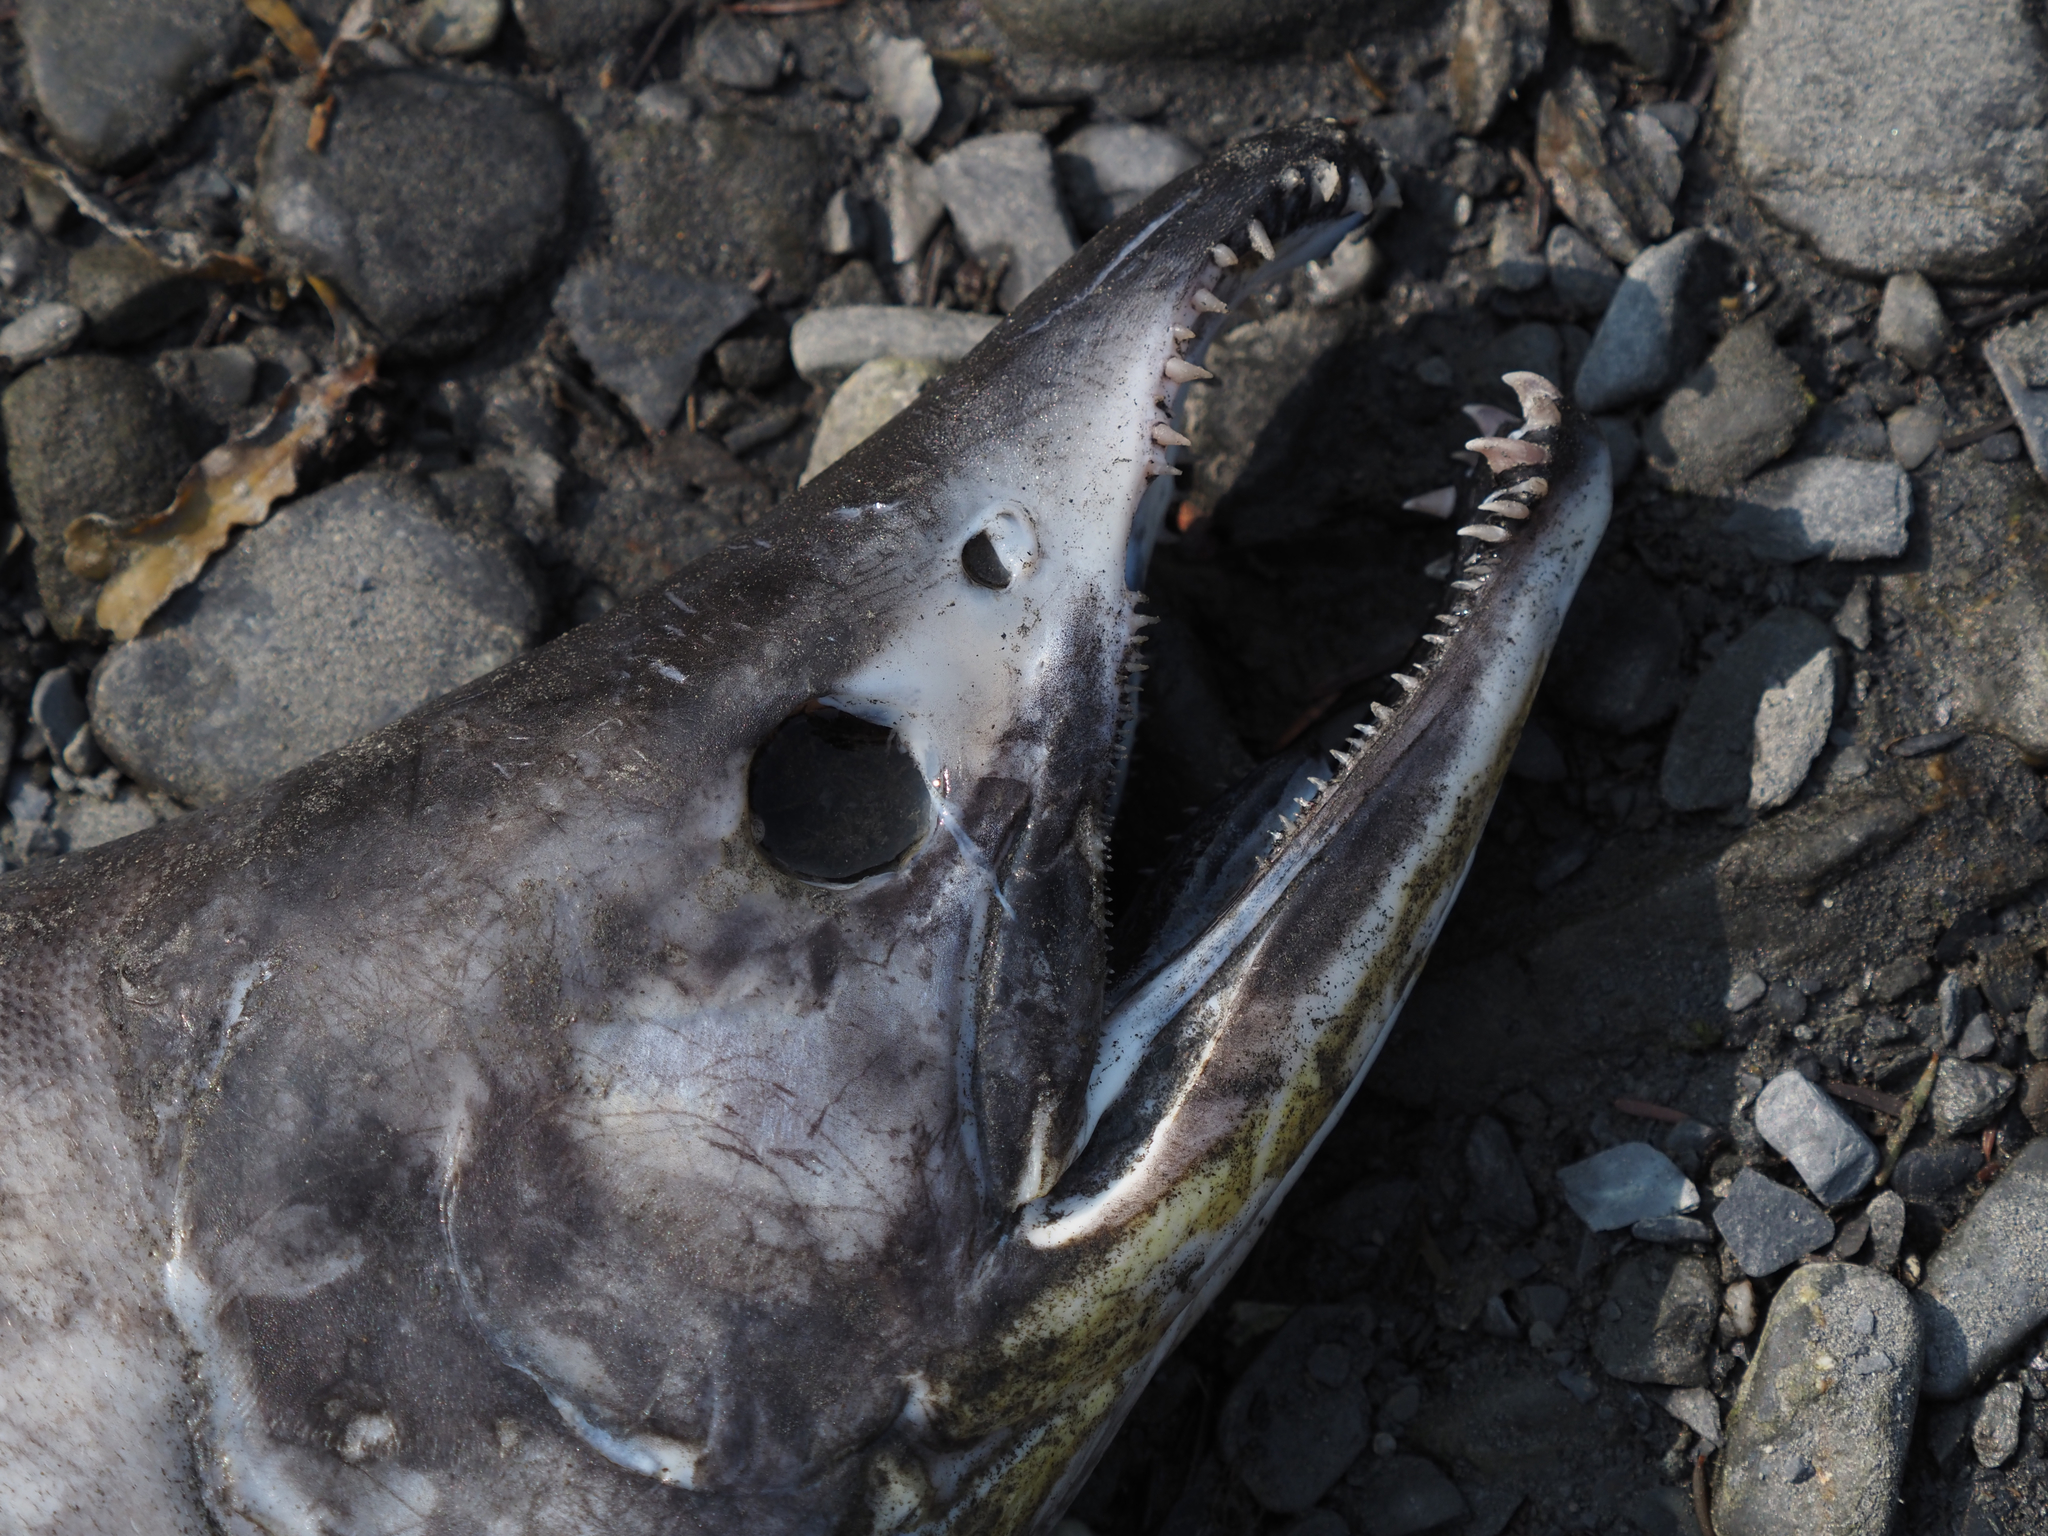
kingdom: Animalia
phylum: Chordata
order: Salmoniformes
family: Salmonidae
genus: Oncorhynchus
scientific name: Oncorhynchus gorbuscha
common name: Humpback salmon
